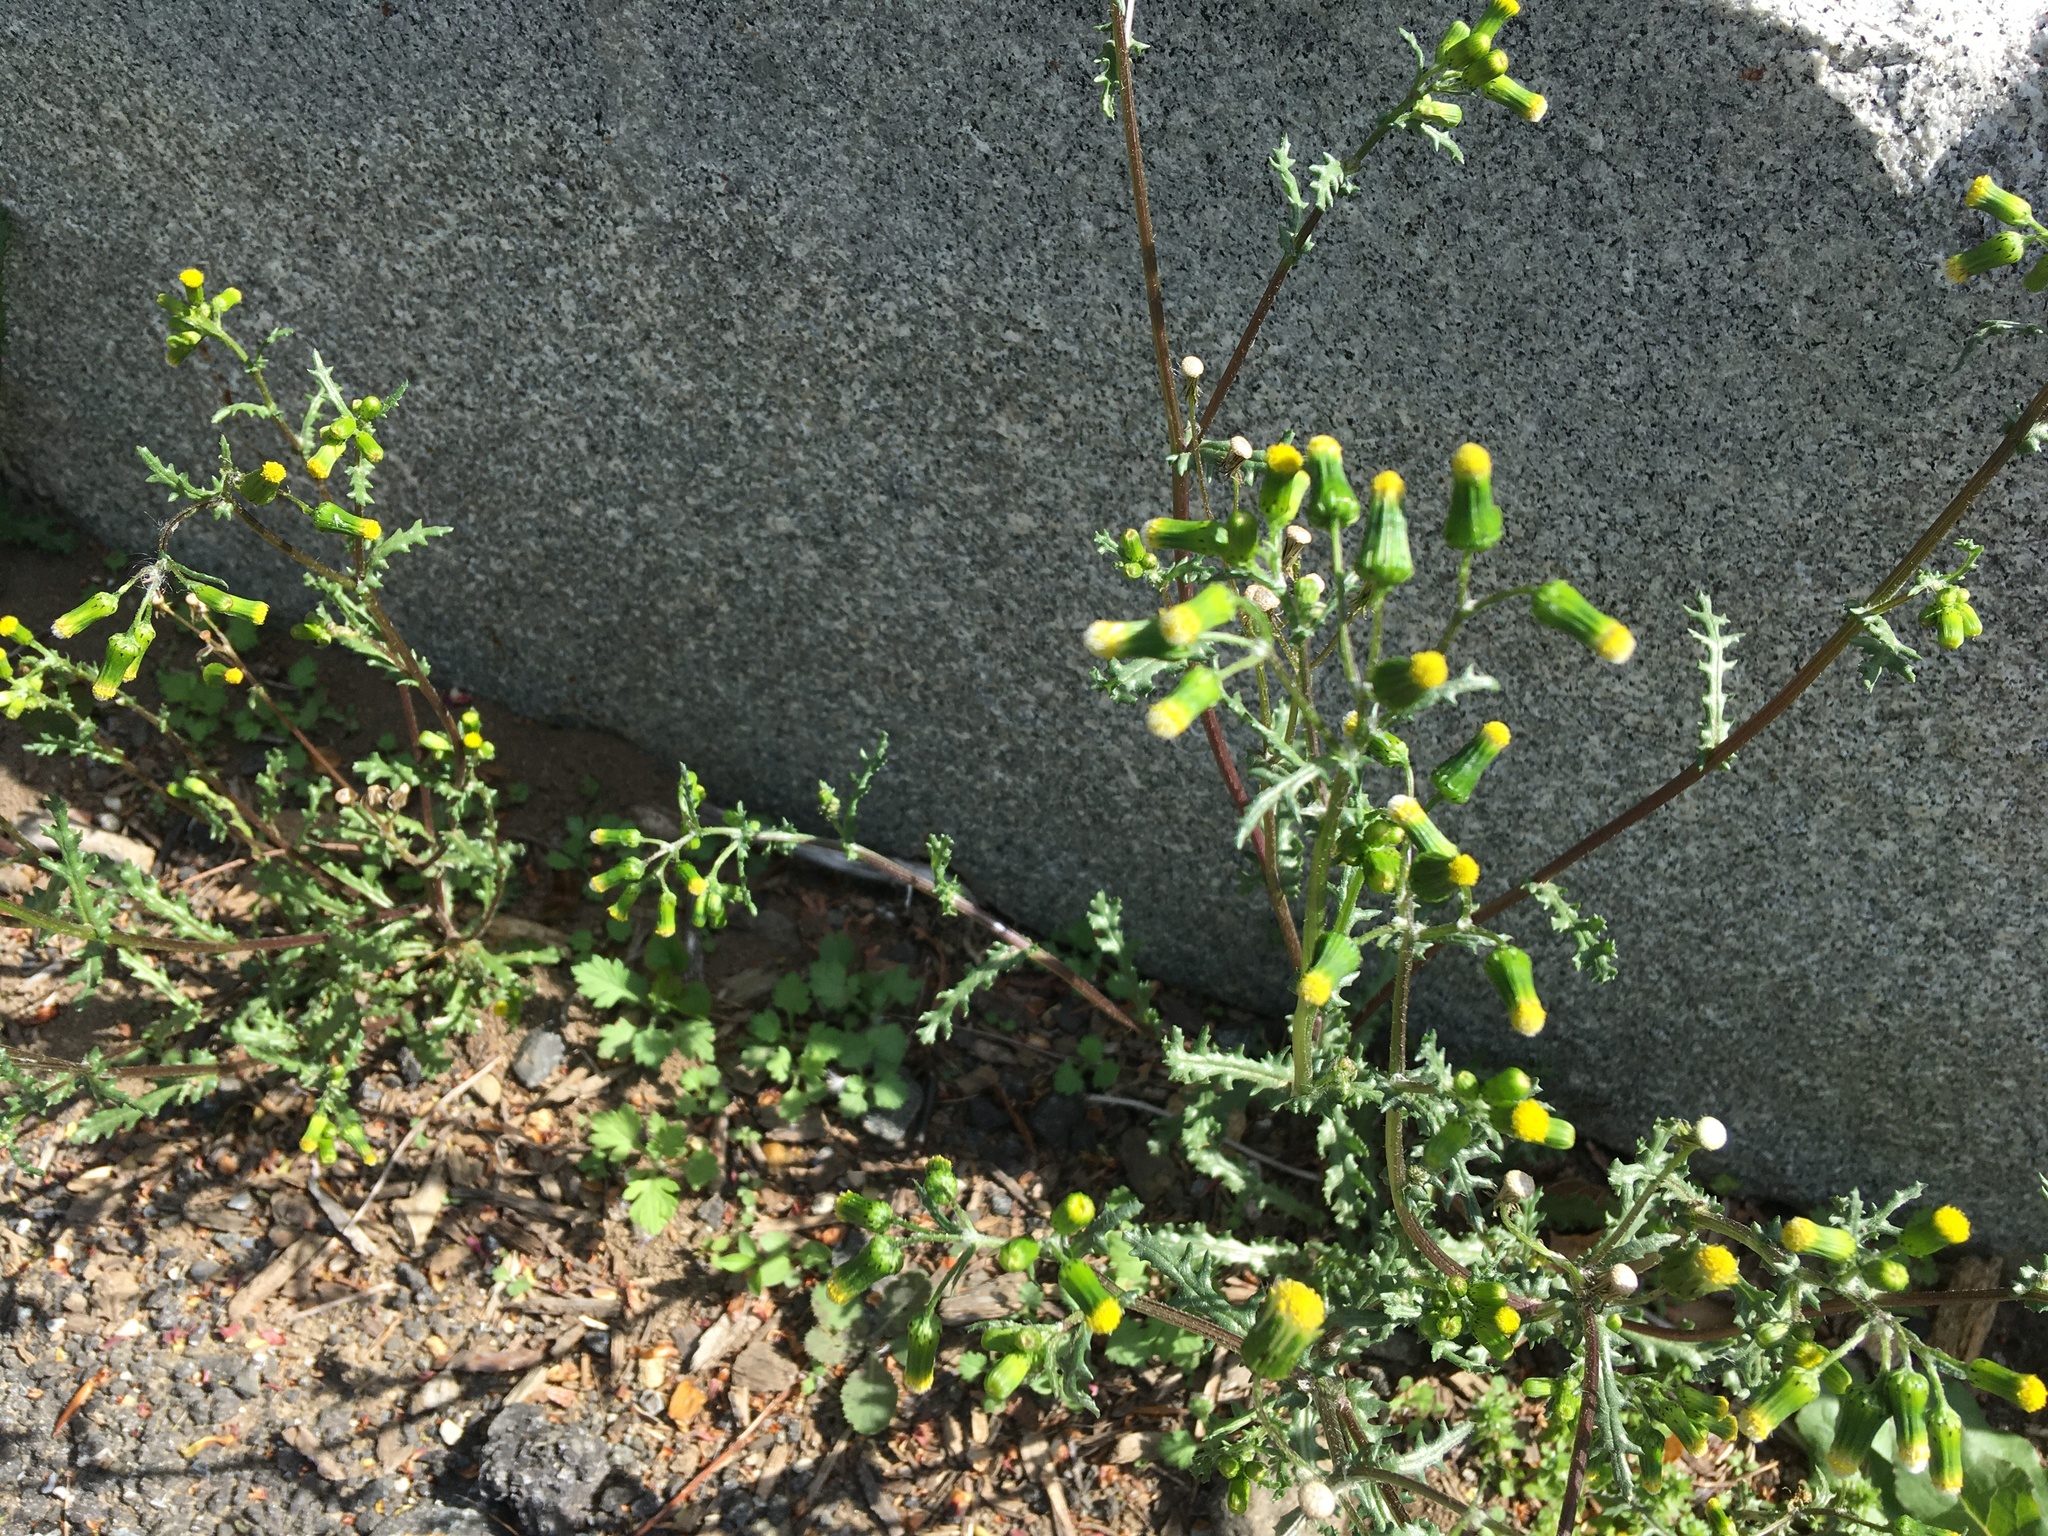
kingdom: Plantae
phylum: Tracheophyta
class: Magnoliopsida
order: Asterales
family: Asteraceae
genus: Senecio
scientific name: Senecio vulgaris
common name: Old-man-in-the-spring
